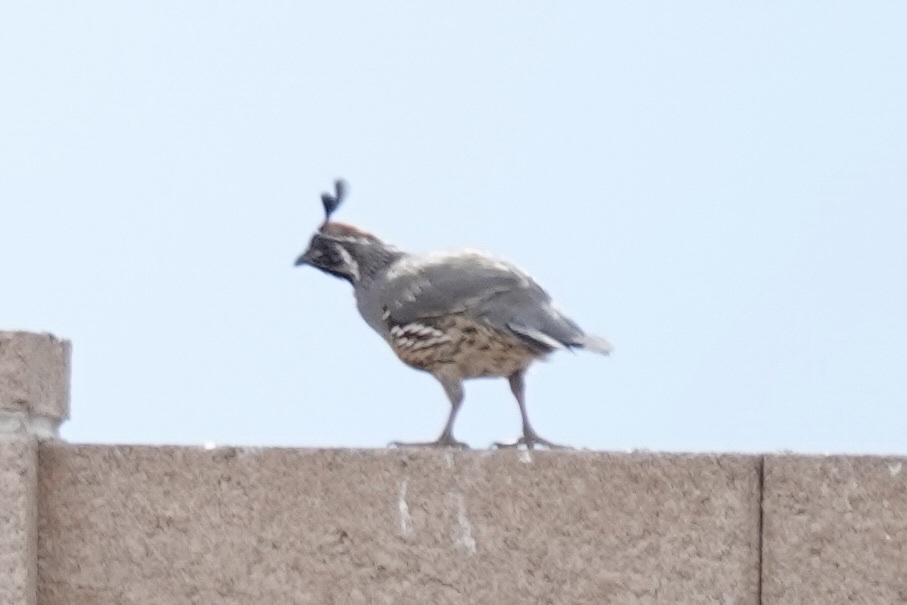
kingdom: Animalia
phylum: Chordata
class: Aves
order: Galliformes
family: Odontophoridae
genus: Callipepla
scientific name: Callipepla gambelii
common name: Gambel's quail
